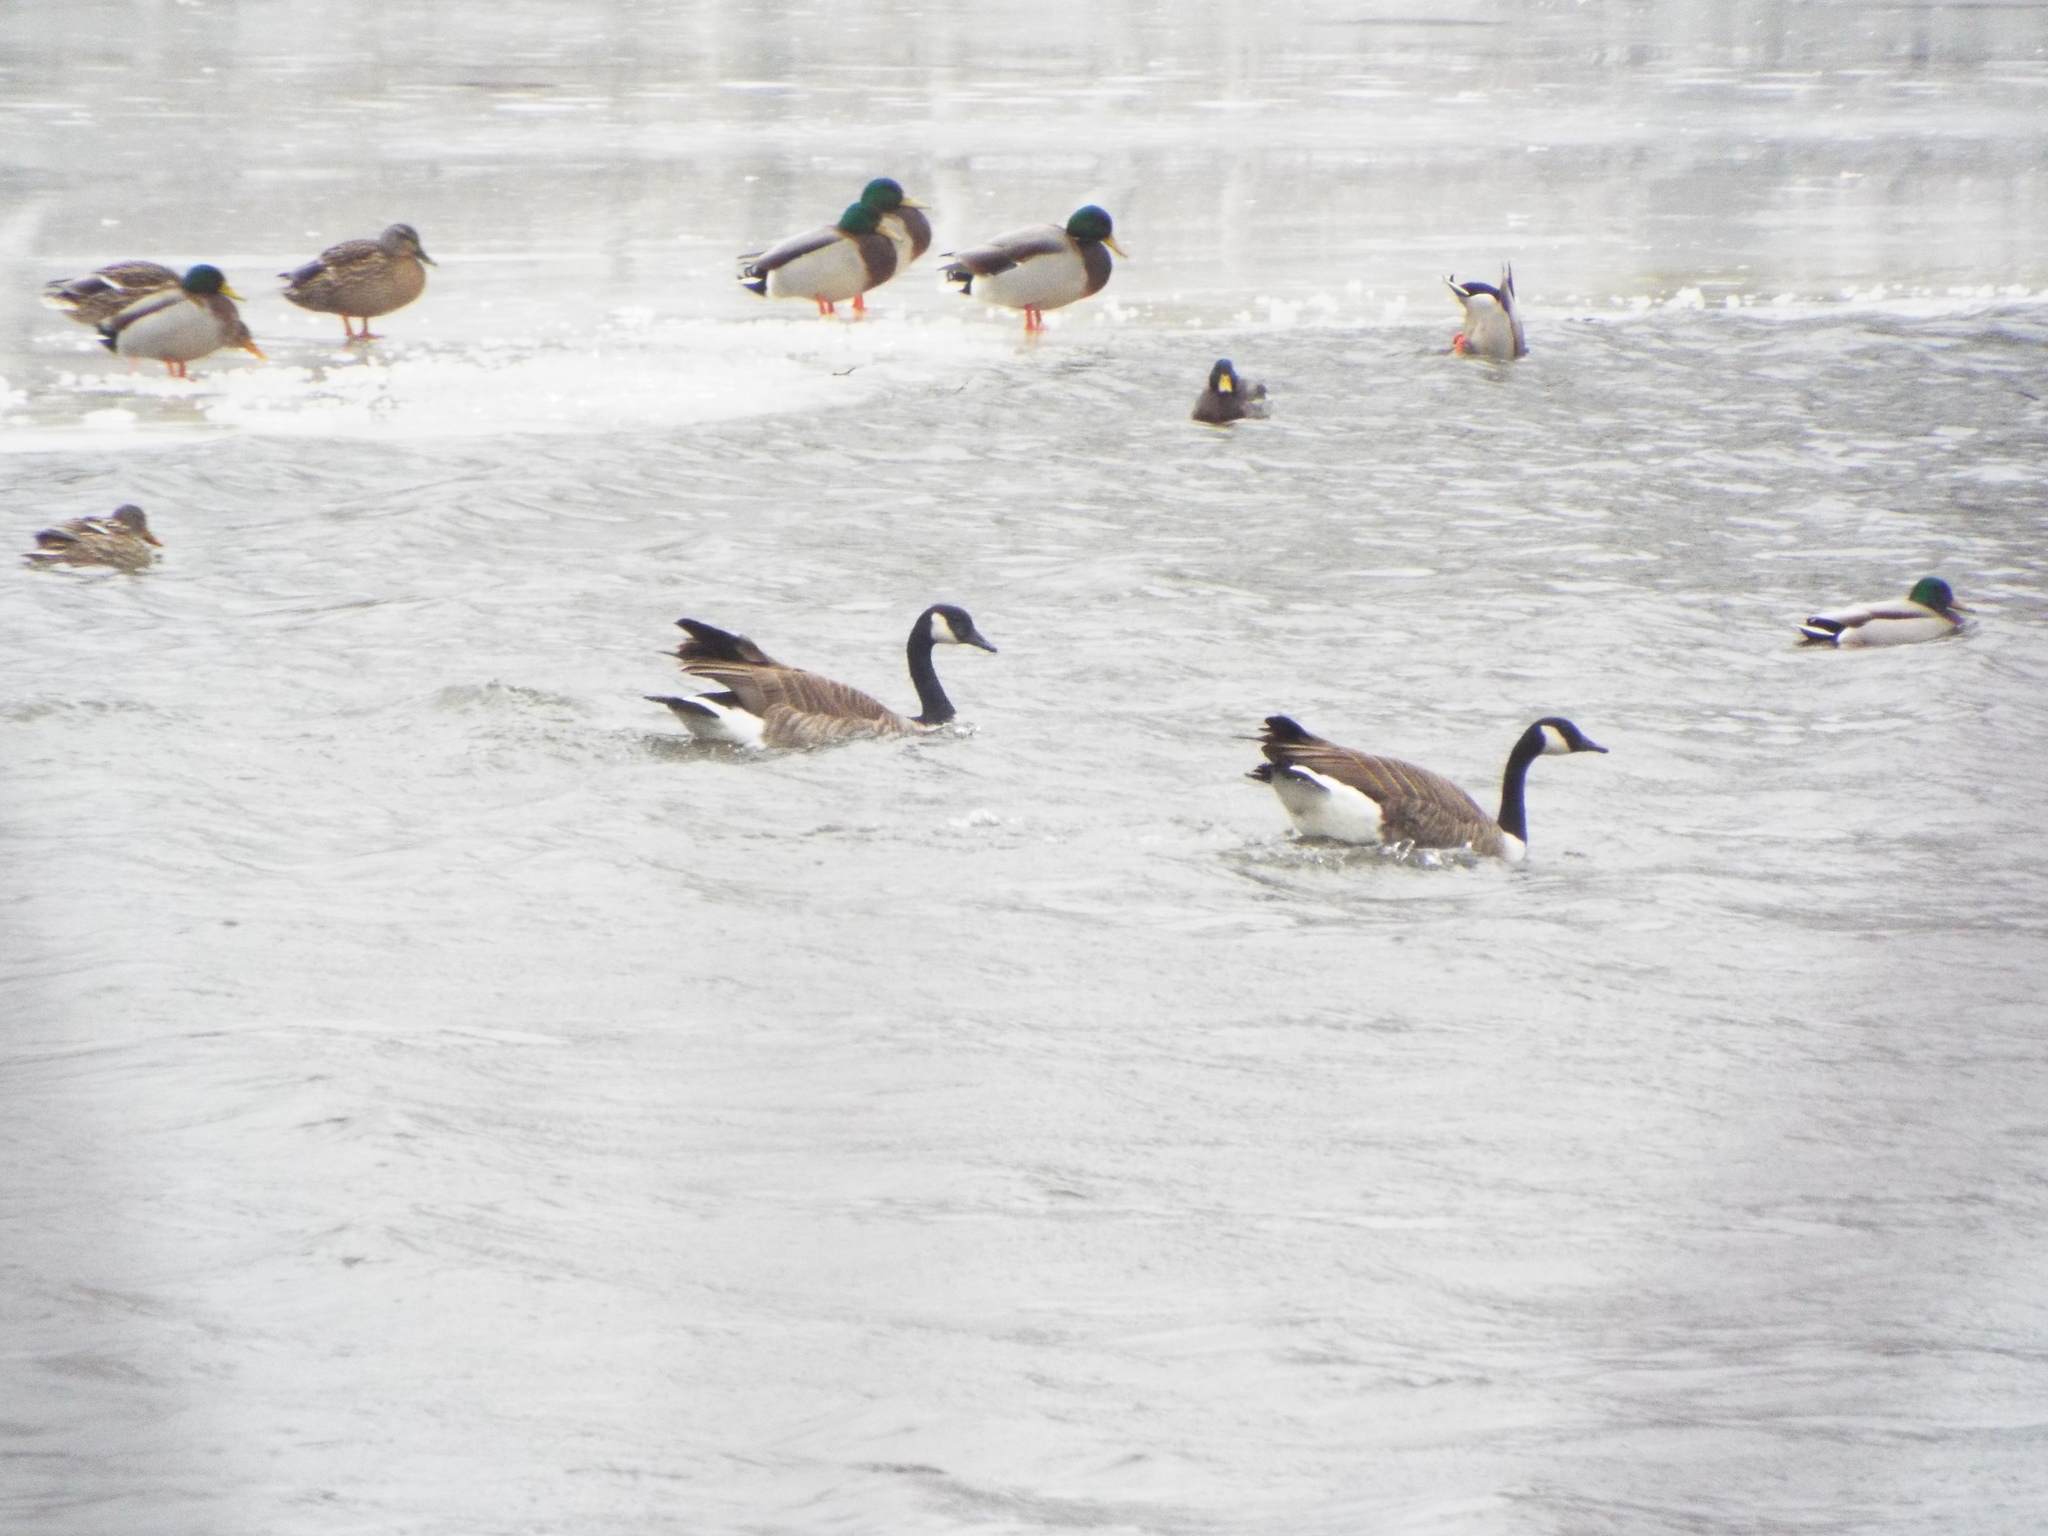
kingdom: Animalia
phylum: Chordata
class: Aves
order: Anseriformes
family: Anatidae
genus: Branta
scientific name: Branta canadensis
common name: Canada goose
